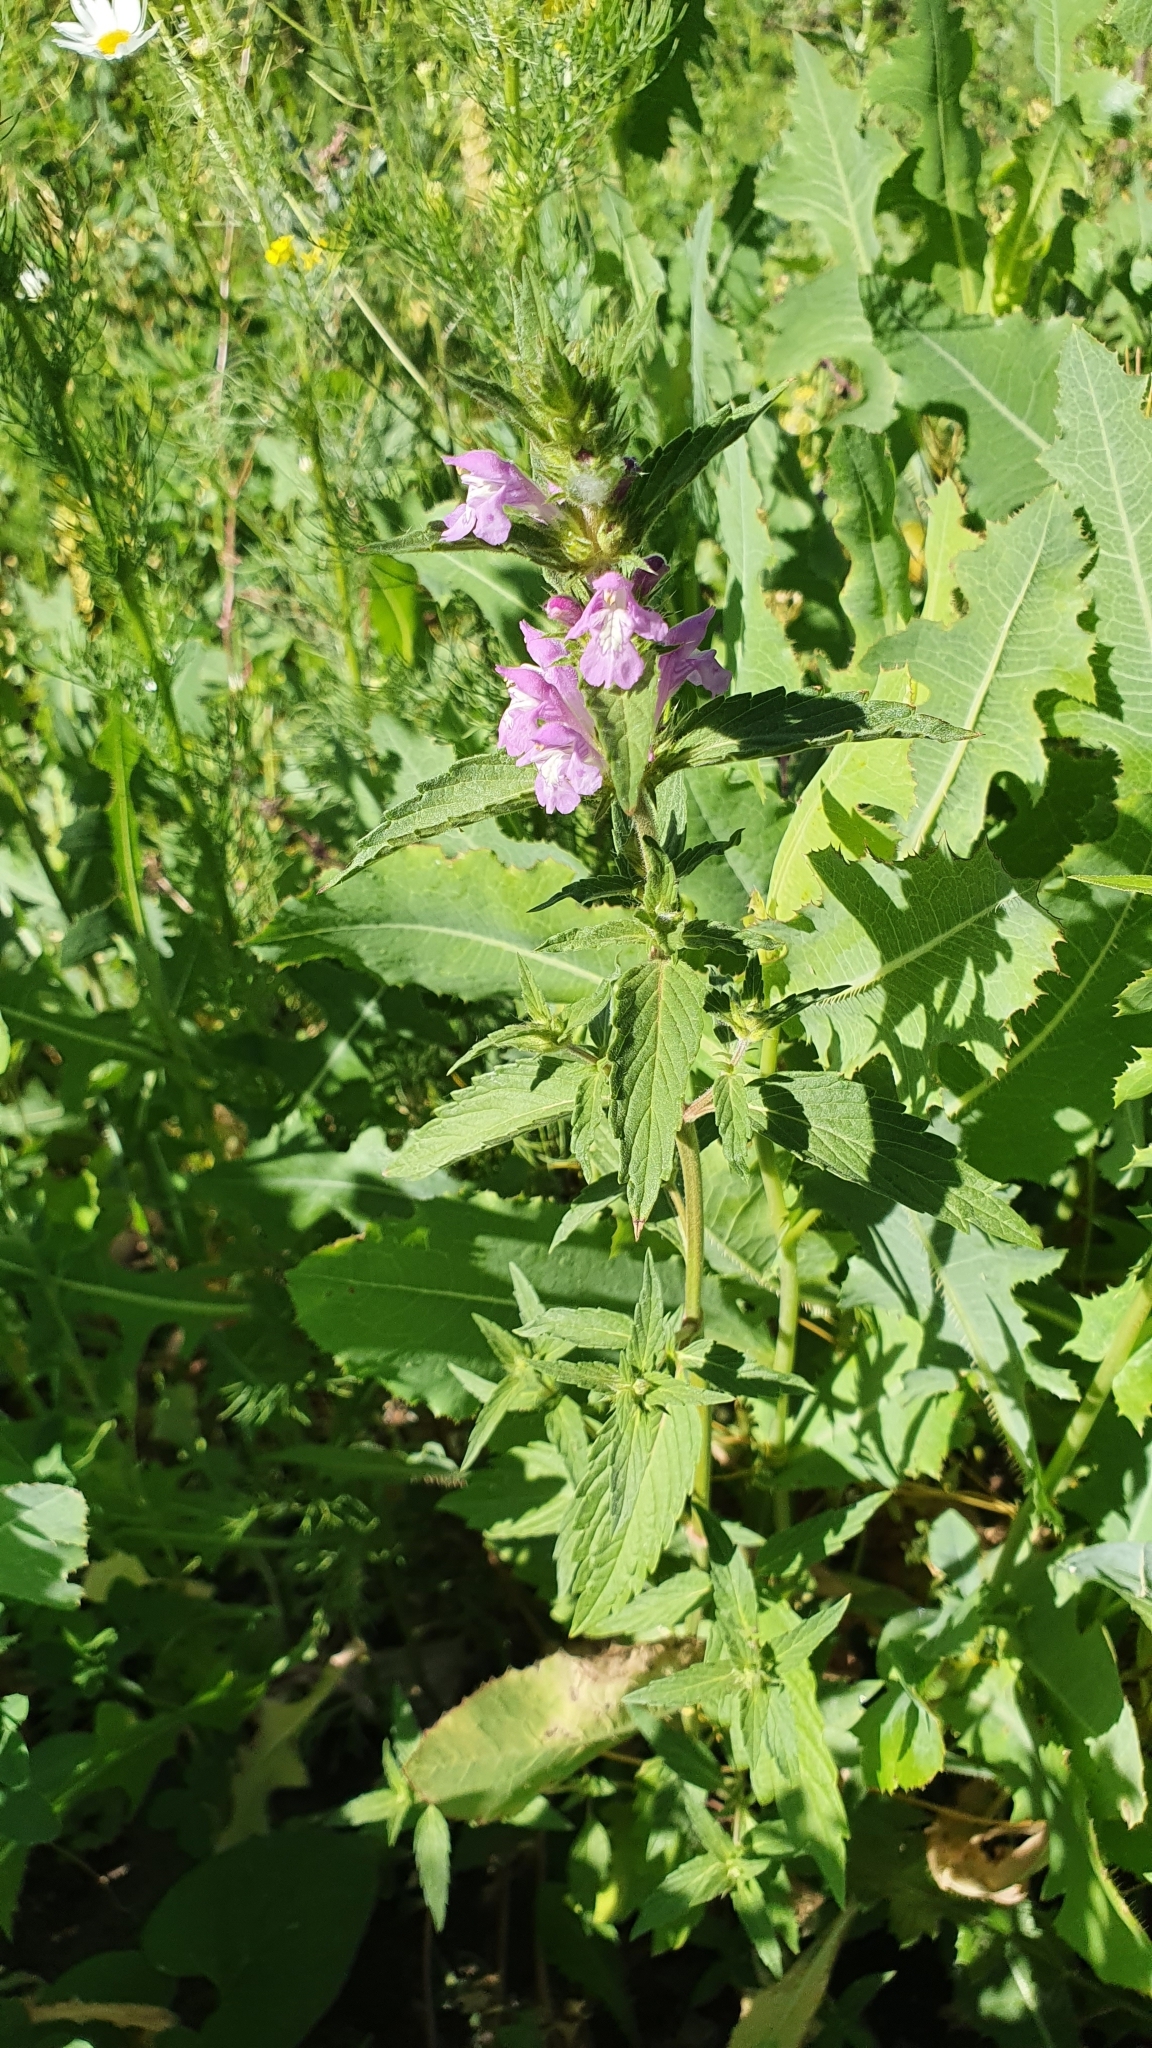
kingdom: Plantae
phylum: Tracheophyta
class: Magnoliopsida
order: Lamiales
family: Lamiaceae
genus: Stachys
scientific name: Stachys palustris
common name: Marsh woundwort
